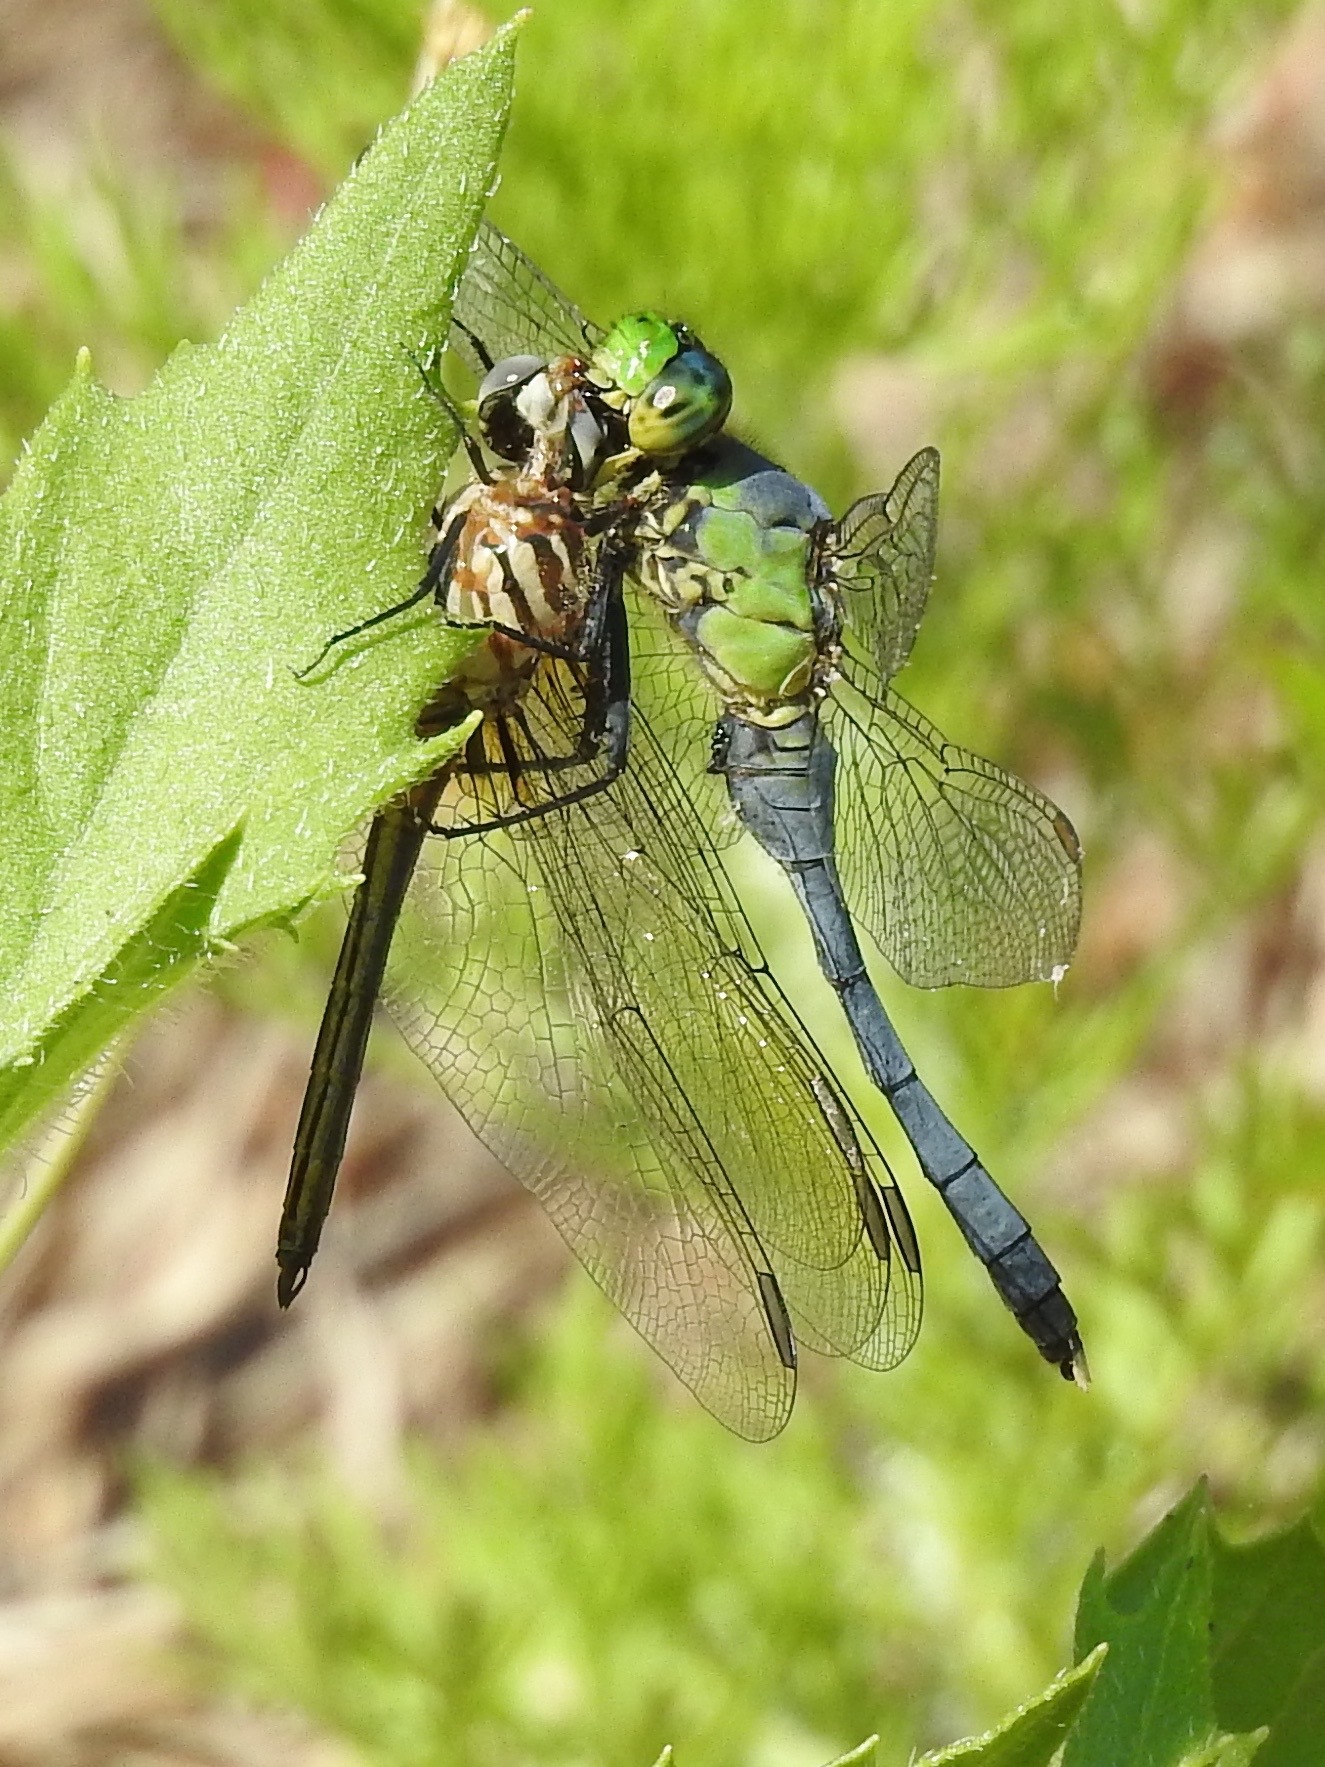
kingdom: Animalia
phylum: Arthropoda
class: Insecta
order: Odonata
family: Libellulidae
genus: Erythemis
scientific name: Erythemis simplicicollis
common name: Eastern pondhawk
